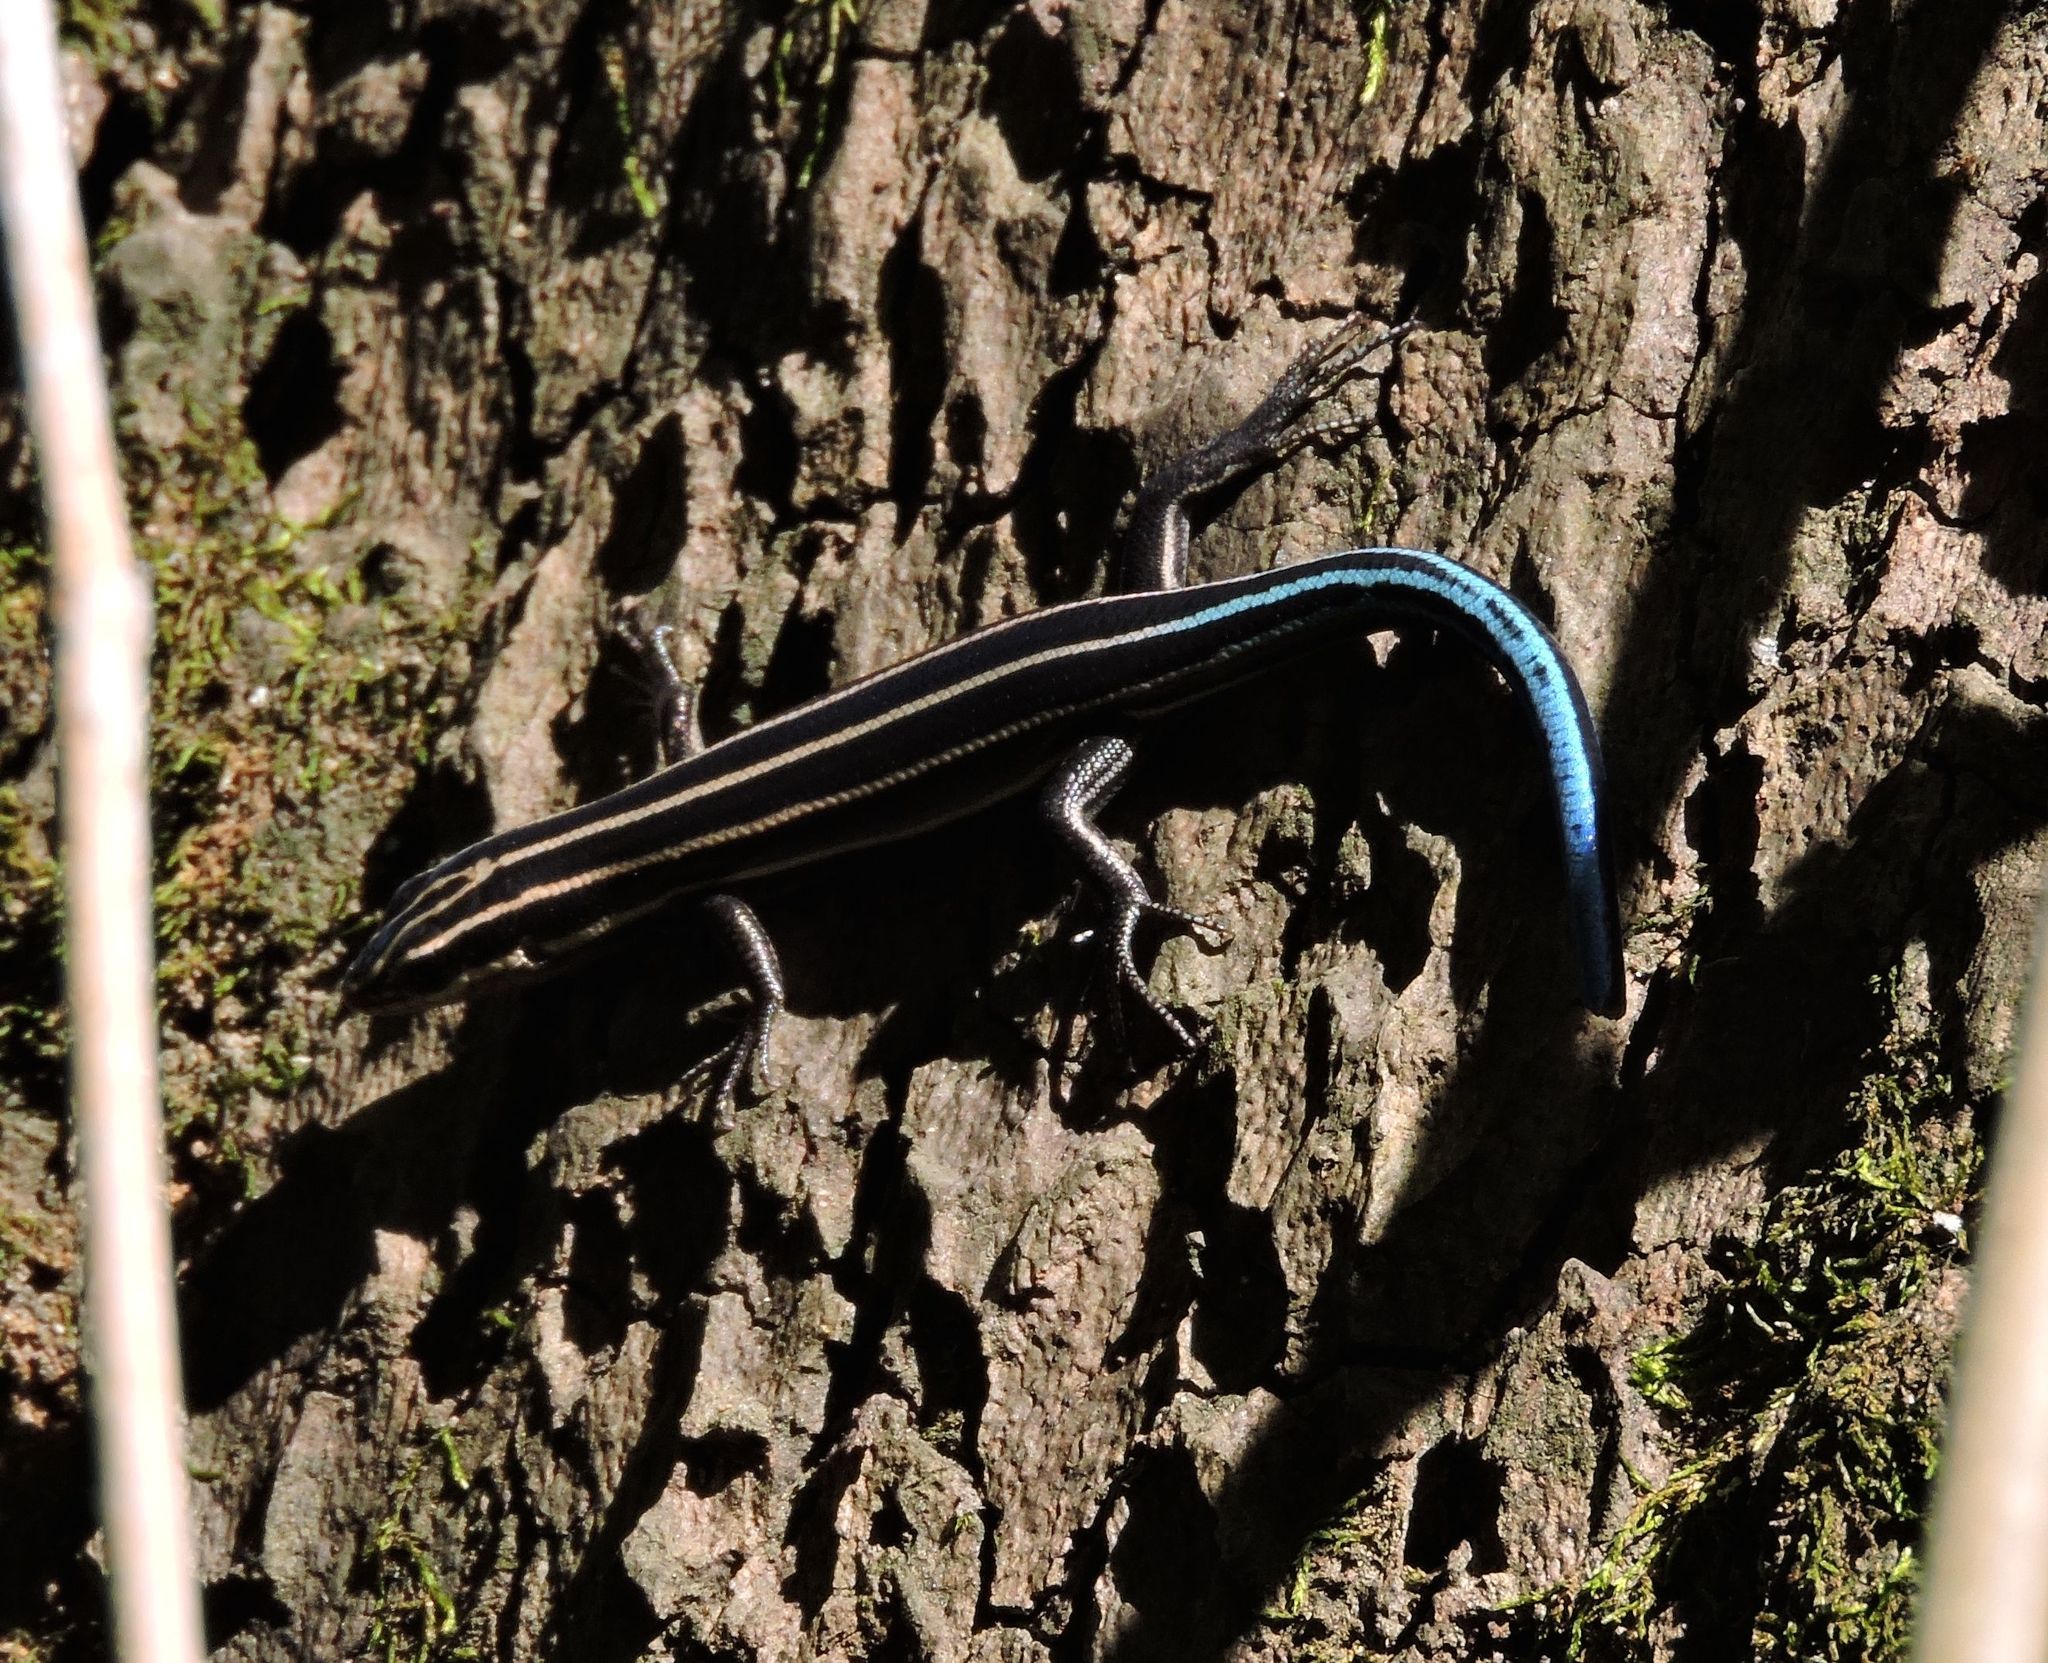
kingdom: Animalia
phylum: Chordata
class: Squamata
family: Scincidae
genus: Plestiodon
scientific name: Plestiodon fasciatus
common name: Five-lined skink
